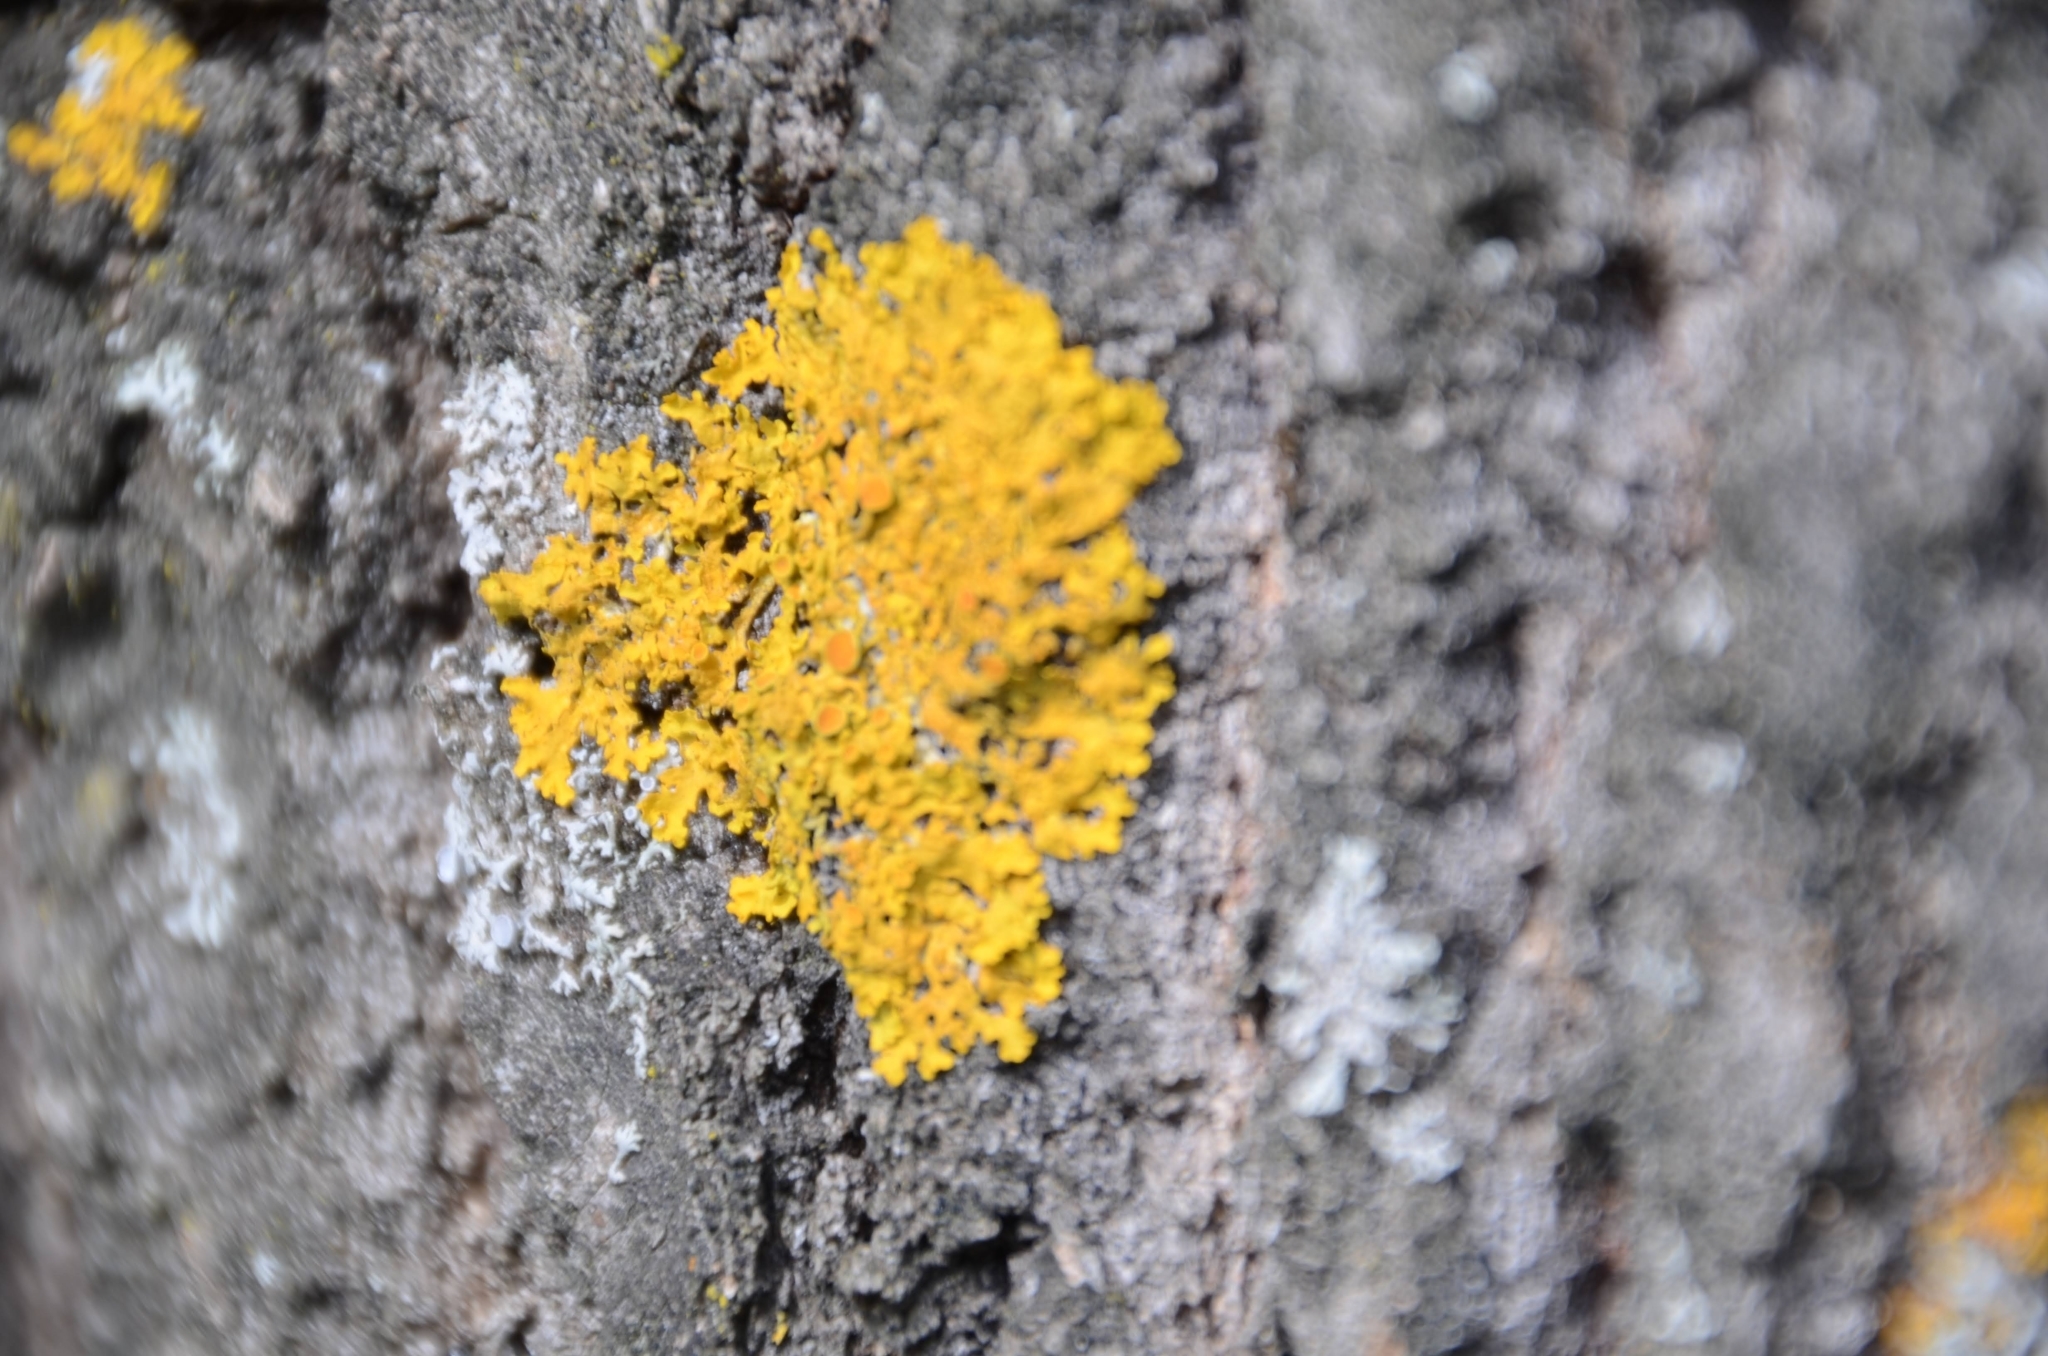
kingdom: Fungi
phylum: Ascomycota
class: Lecanoromycetes
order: Teloschistales
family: Teloschistaceae
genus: Xanthoria
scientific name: Xanthoria parietina
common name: Common orange lichen
